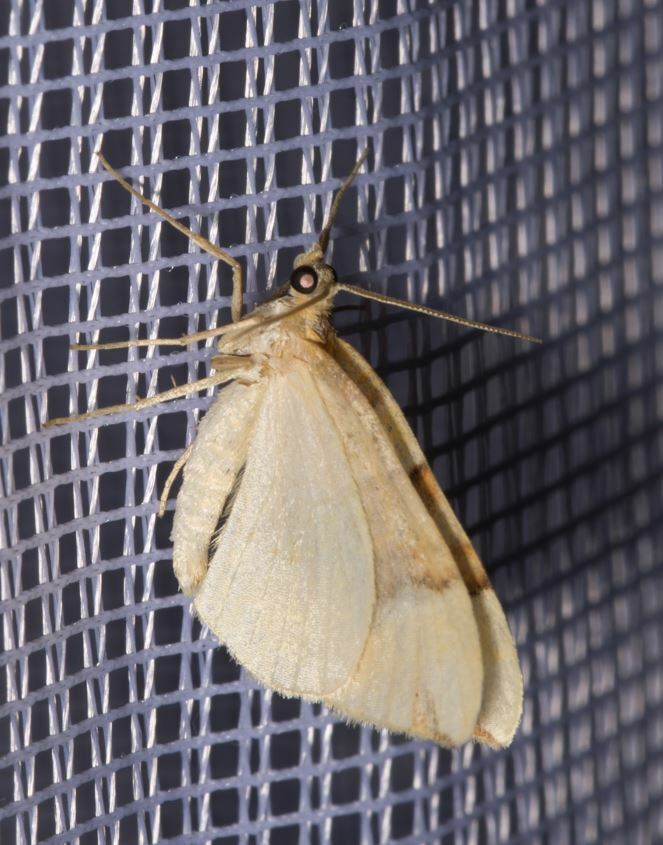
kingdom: Animalia
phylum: Arthropoda
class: Insecta
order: Lepidoptera
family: Geometridae
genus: Cidaria
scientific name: Cidaria fulvata
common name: Barred yellow
